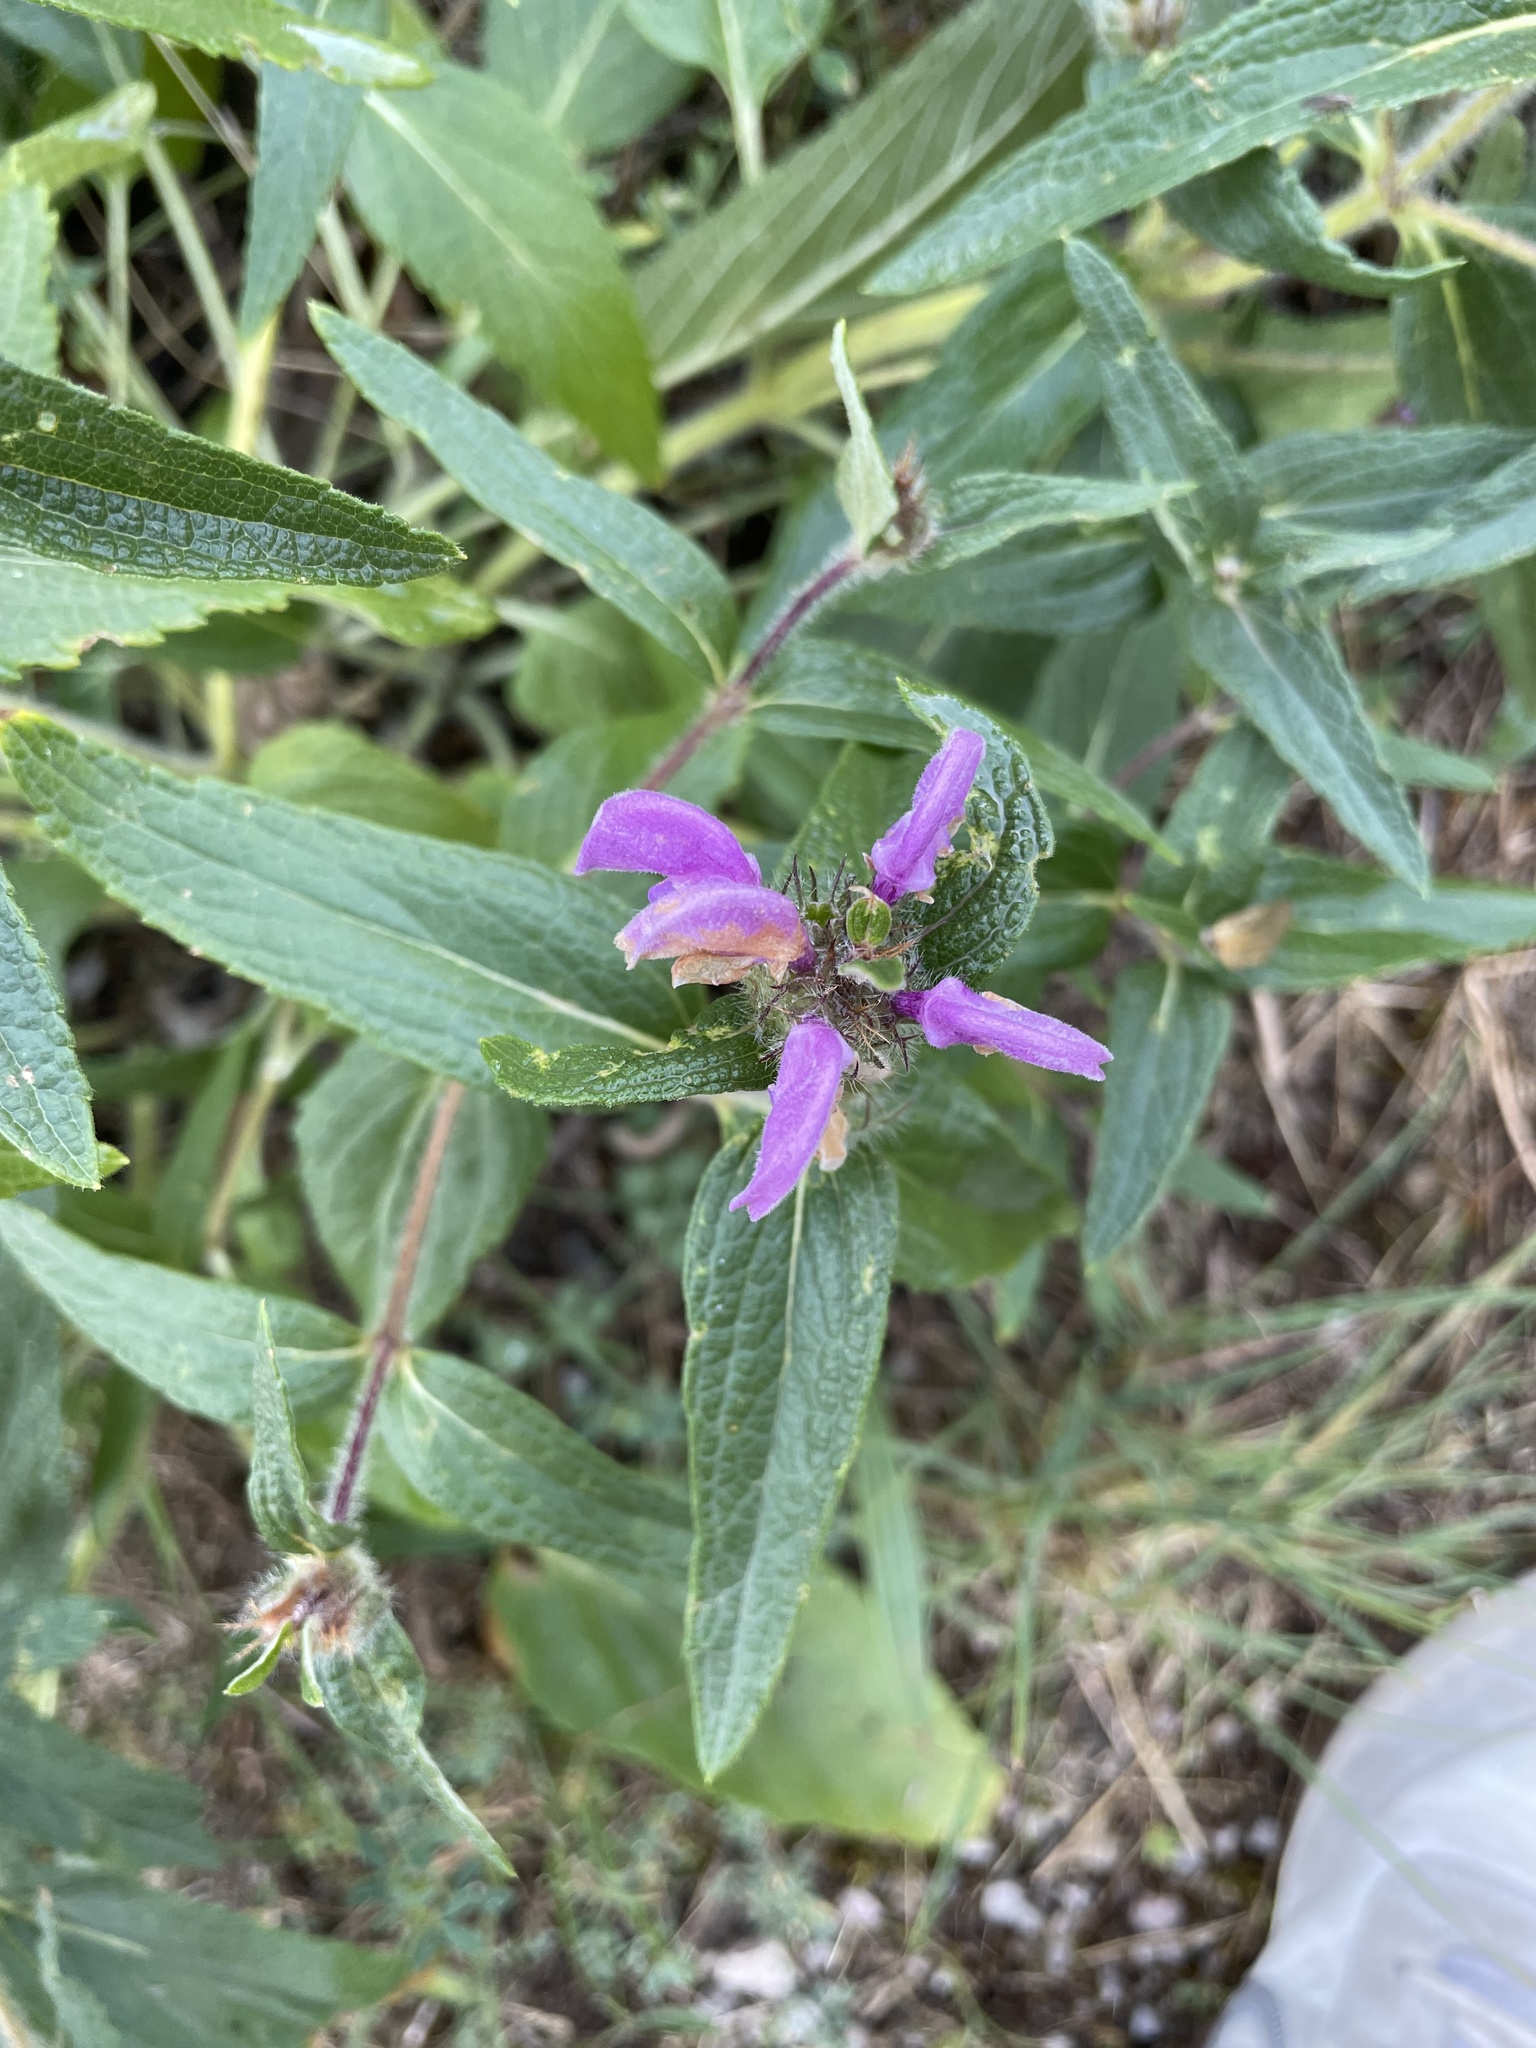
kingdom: Plantae
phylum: Tracheophyta
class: Magnoliopsida
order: Lamiales
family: Lamiaceae
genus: Phlomis
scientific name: Phlomis herba-venti
